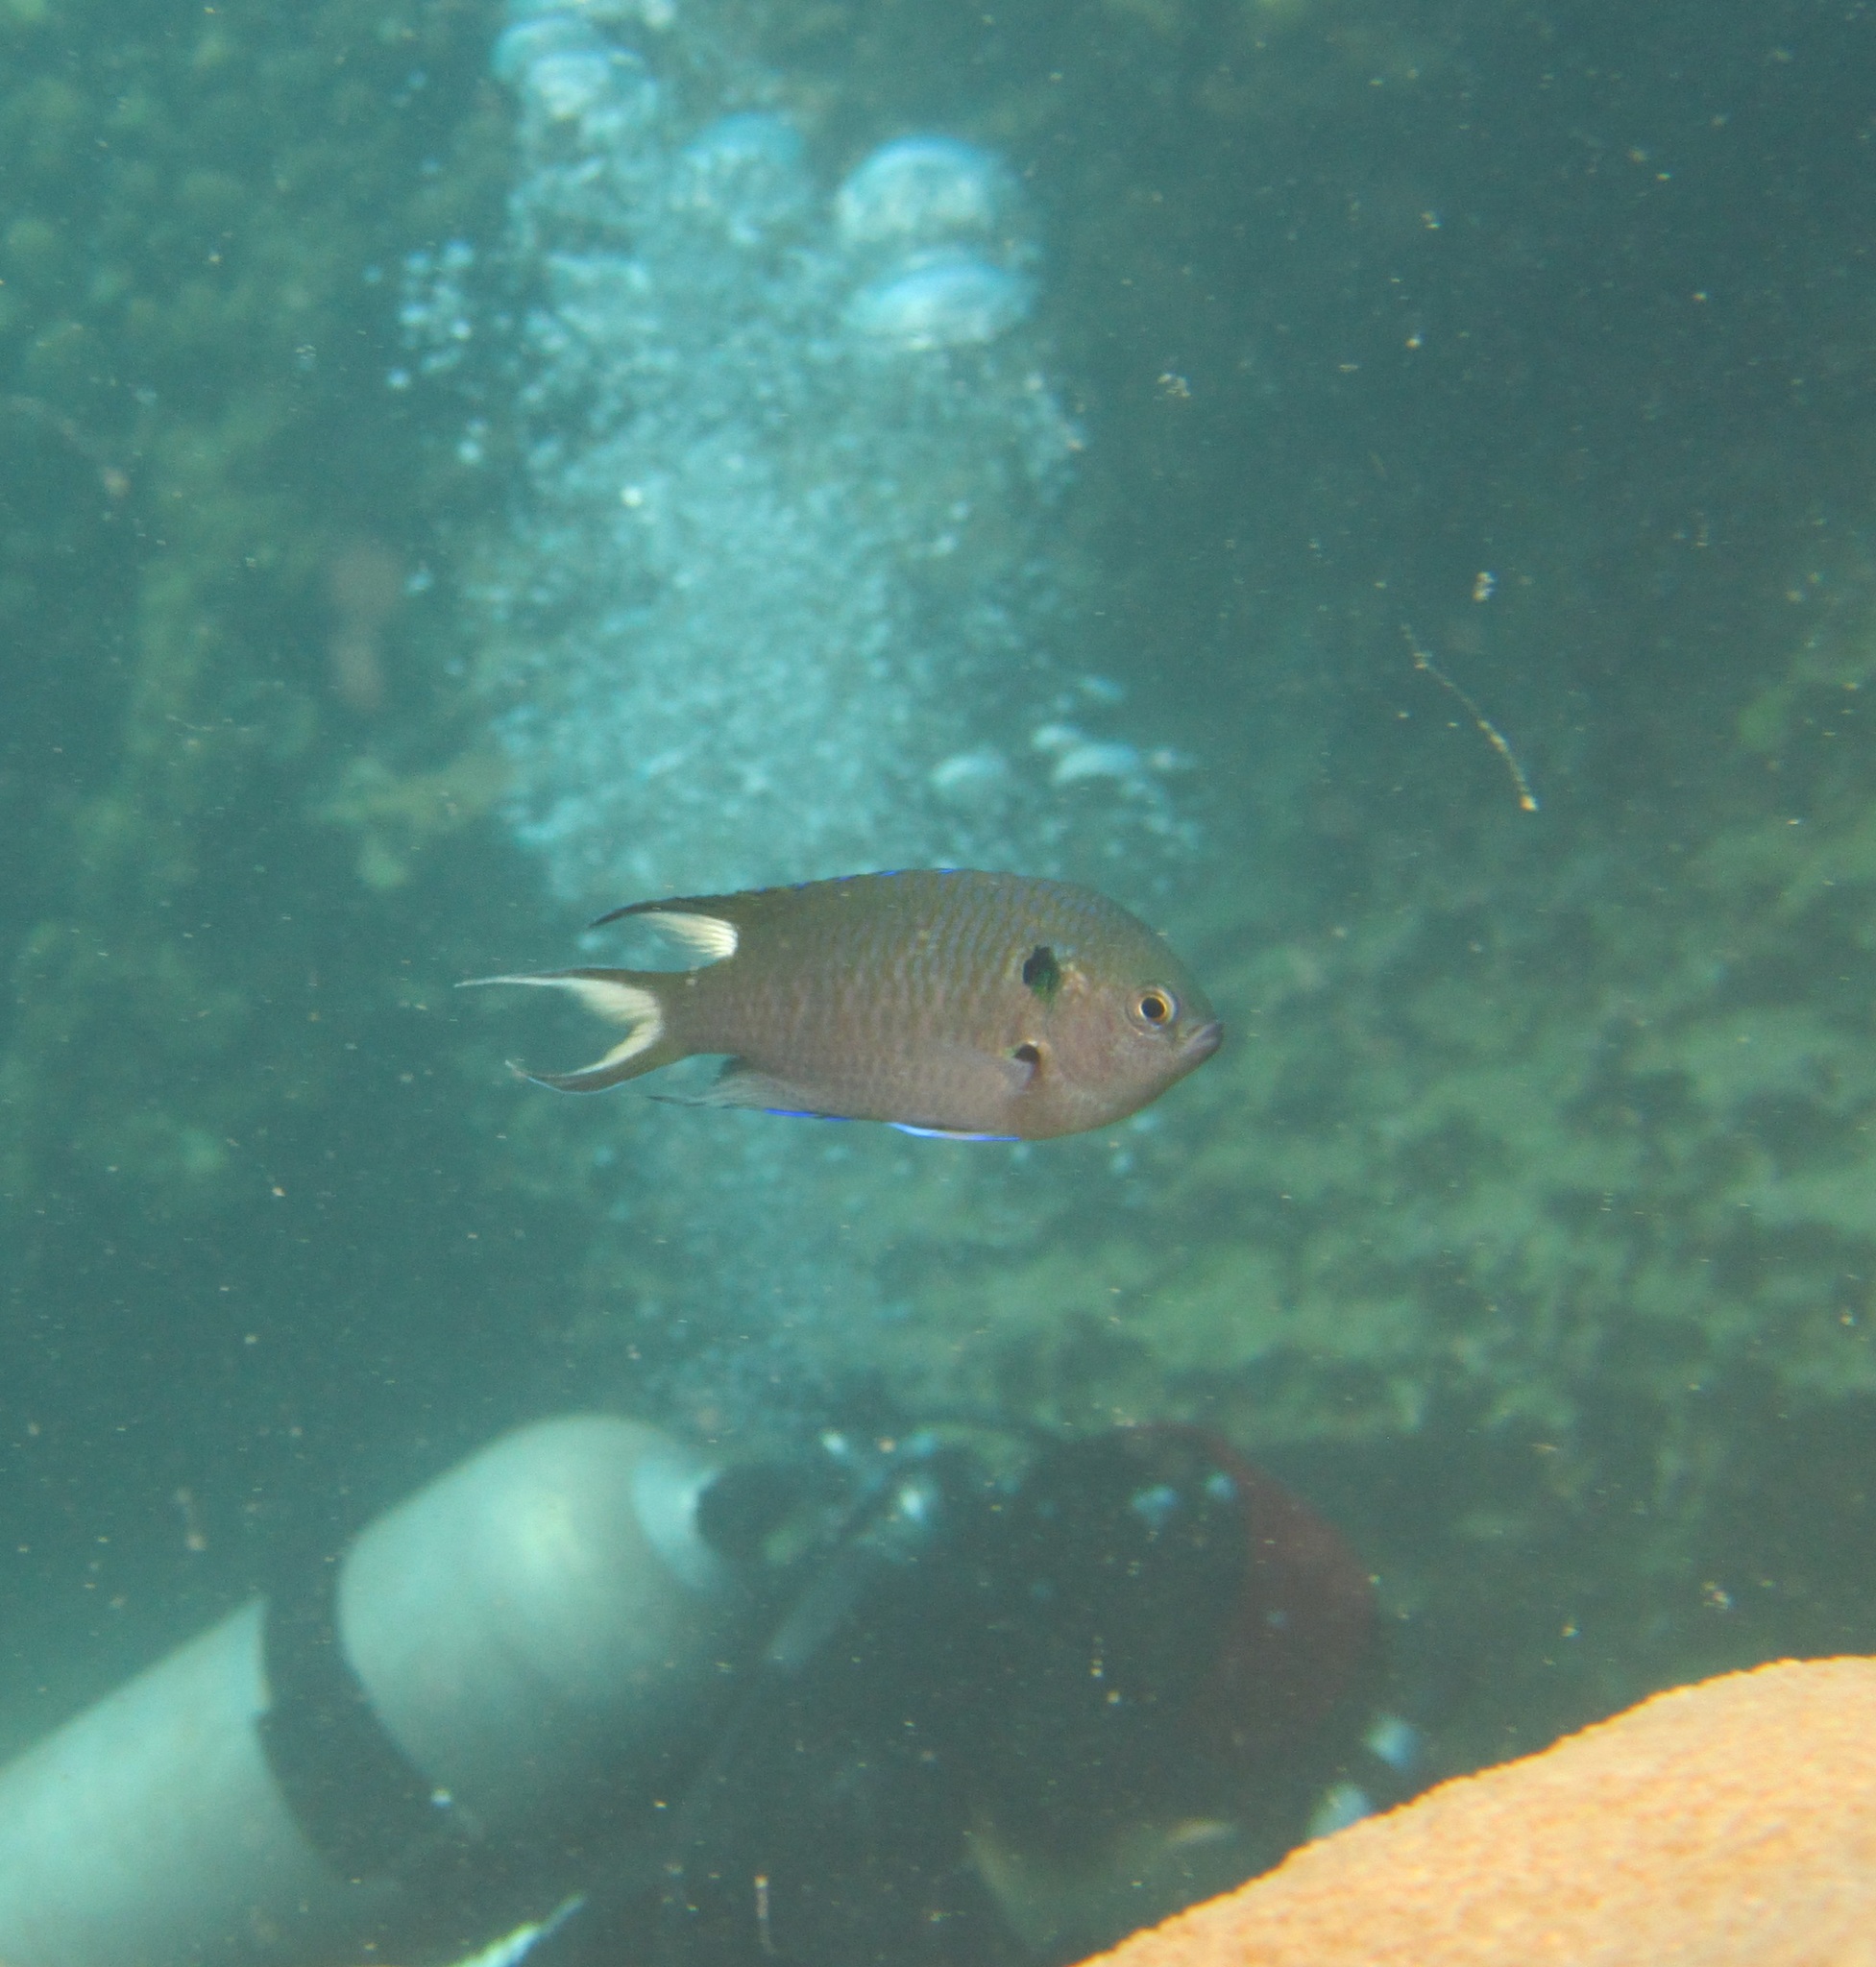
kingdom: Animalia
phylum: Chordata
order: Perciformes
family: Pomacentridae
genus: Neopomacentrus
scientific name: Neopomacentrus cyanomos
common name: Regal demoiselle
